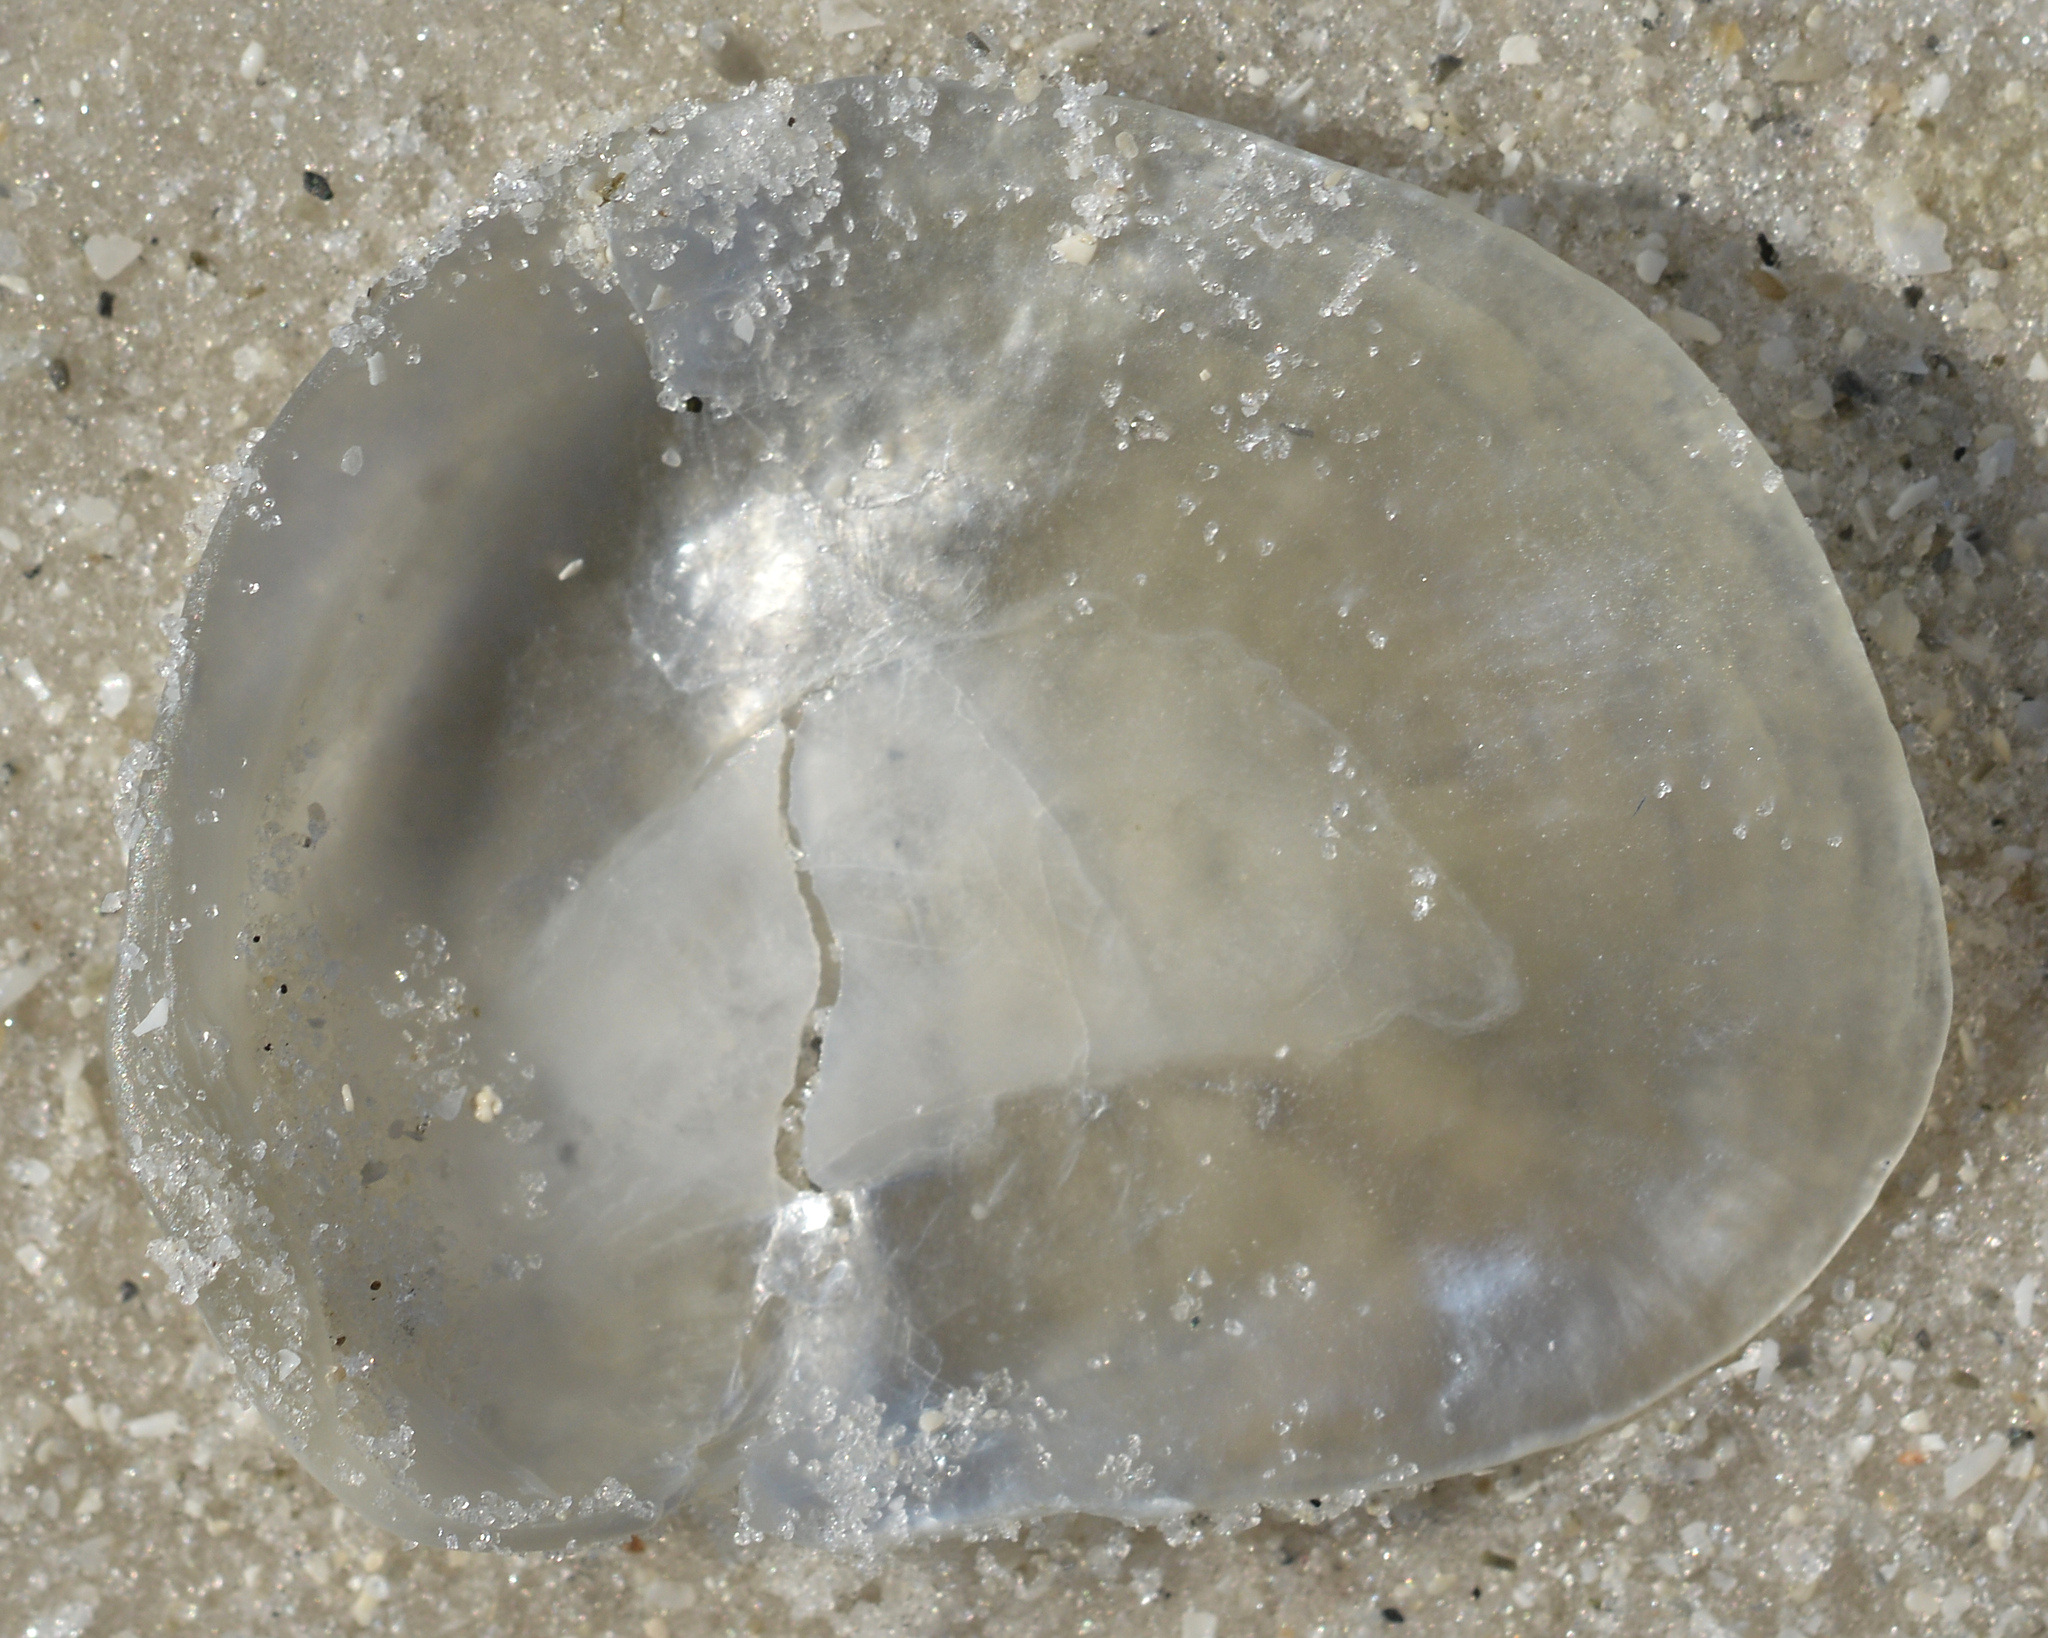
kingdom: Animalia
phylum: Mollusca
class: Bivalvia
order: Pectinida
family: Anomiidae
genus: Anomia
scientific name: Anomia simplex
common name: Common jingle shell
